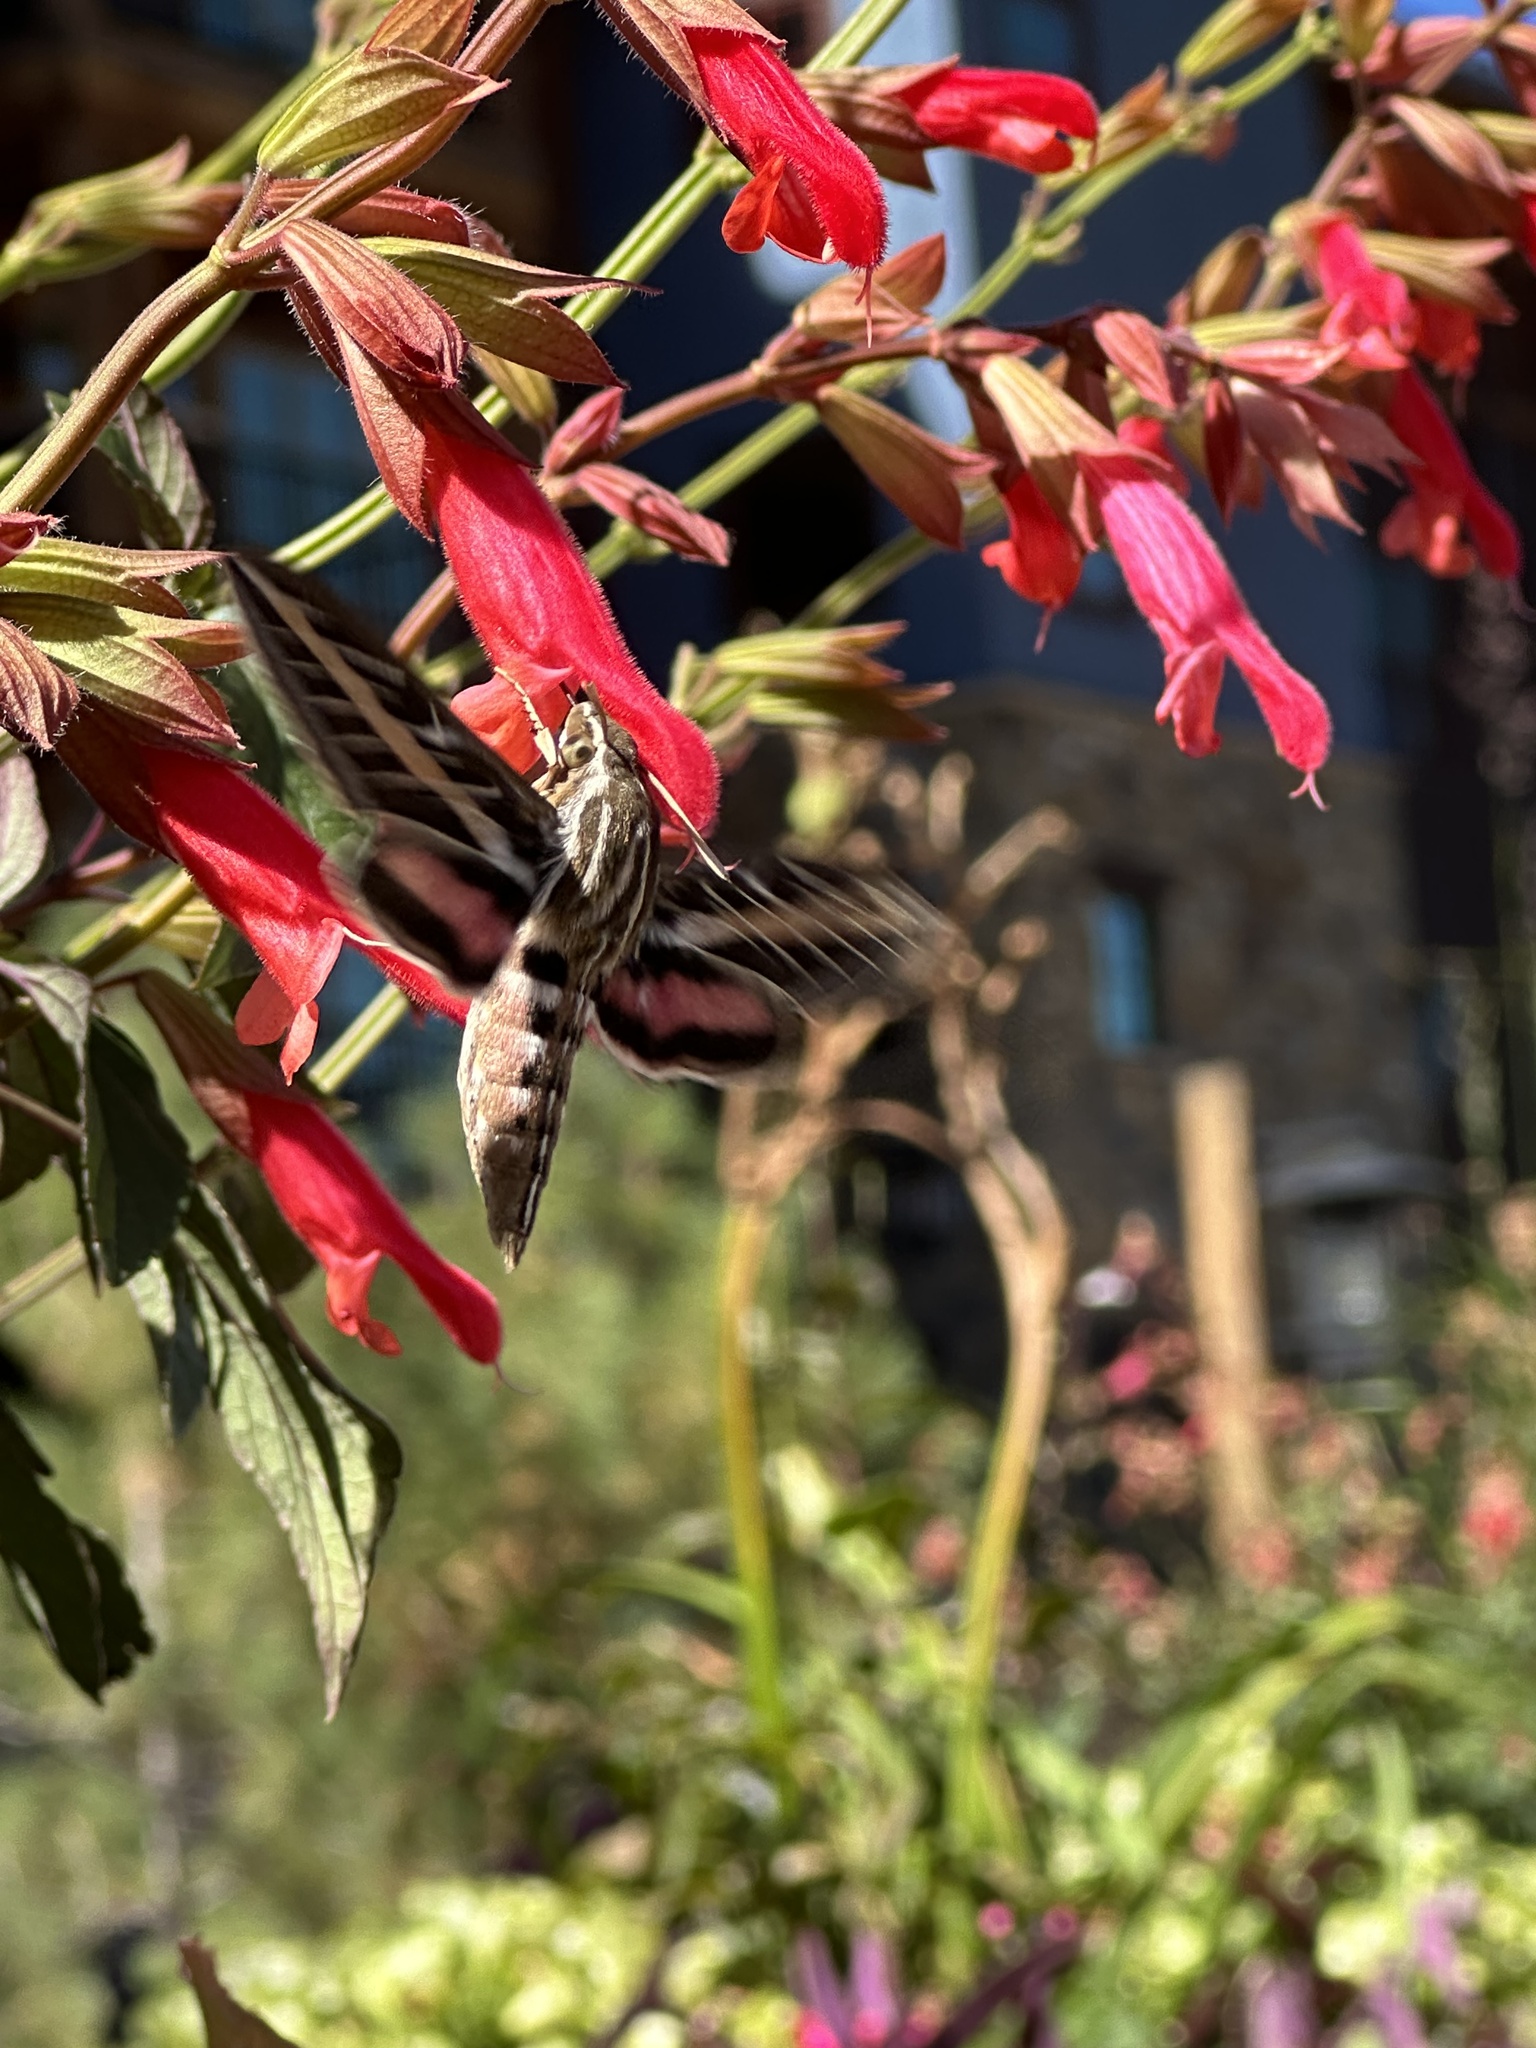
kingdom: Animalia
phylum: Arthropoda
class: Insecta
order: Lepidoptera
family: Sphingidae
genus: Hyles
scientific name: Hyles lineata
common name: White-lined sphinx
